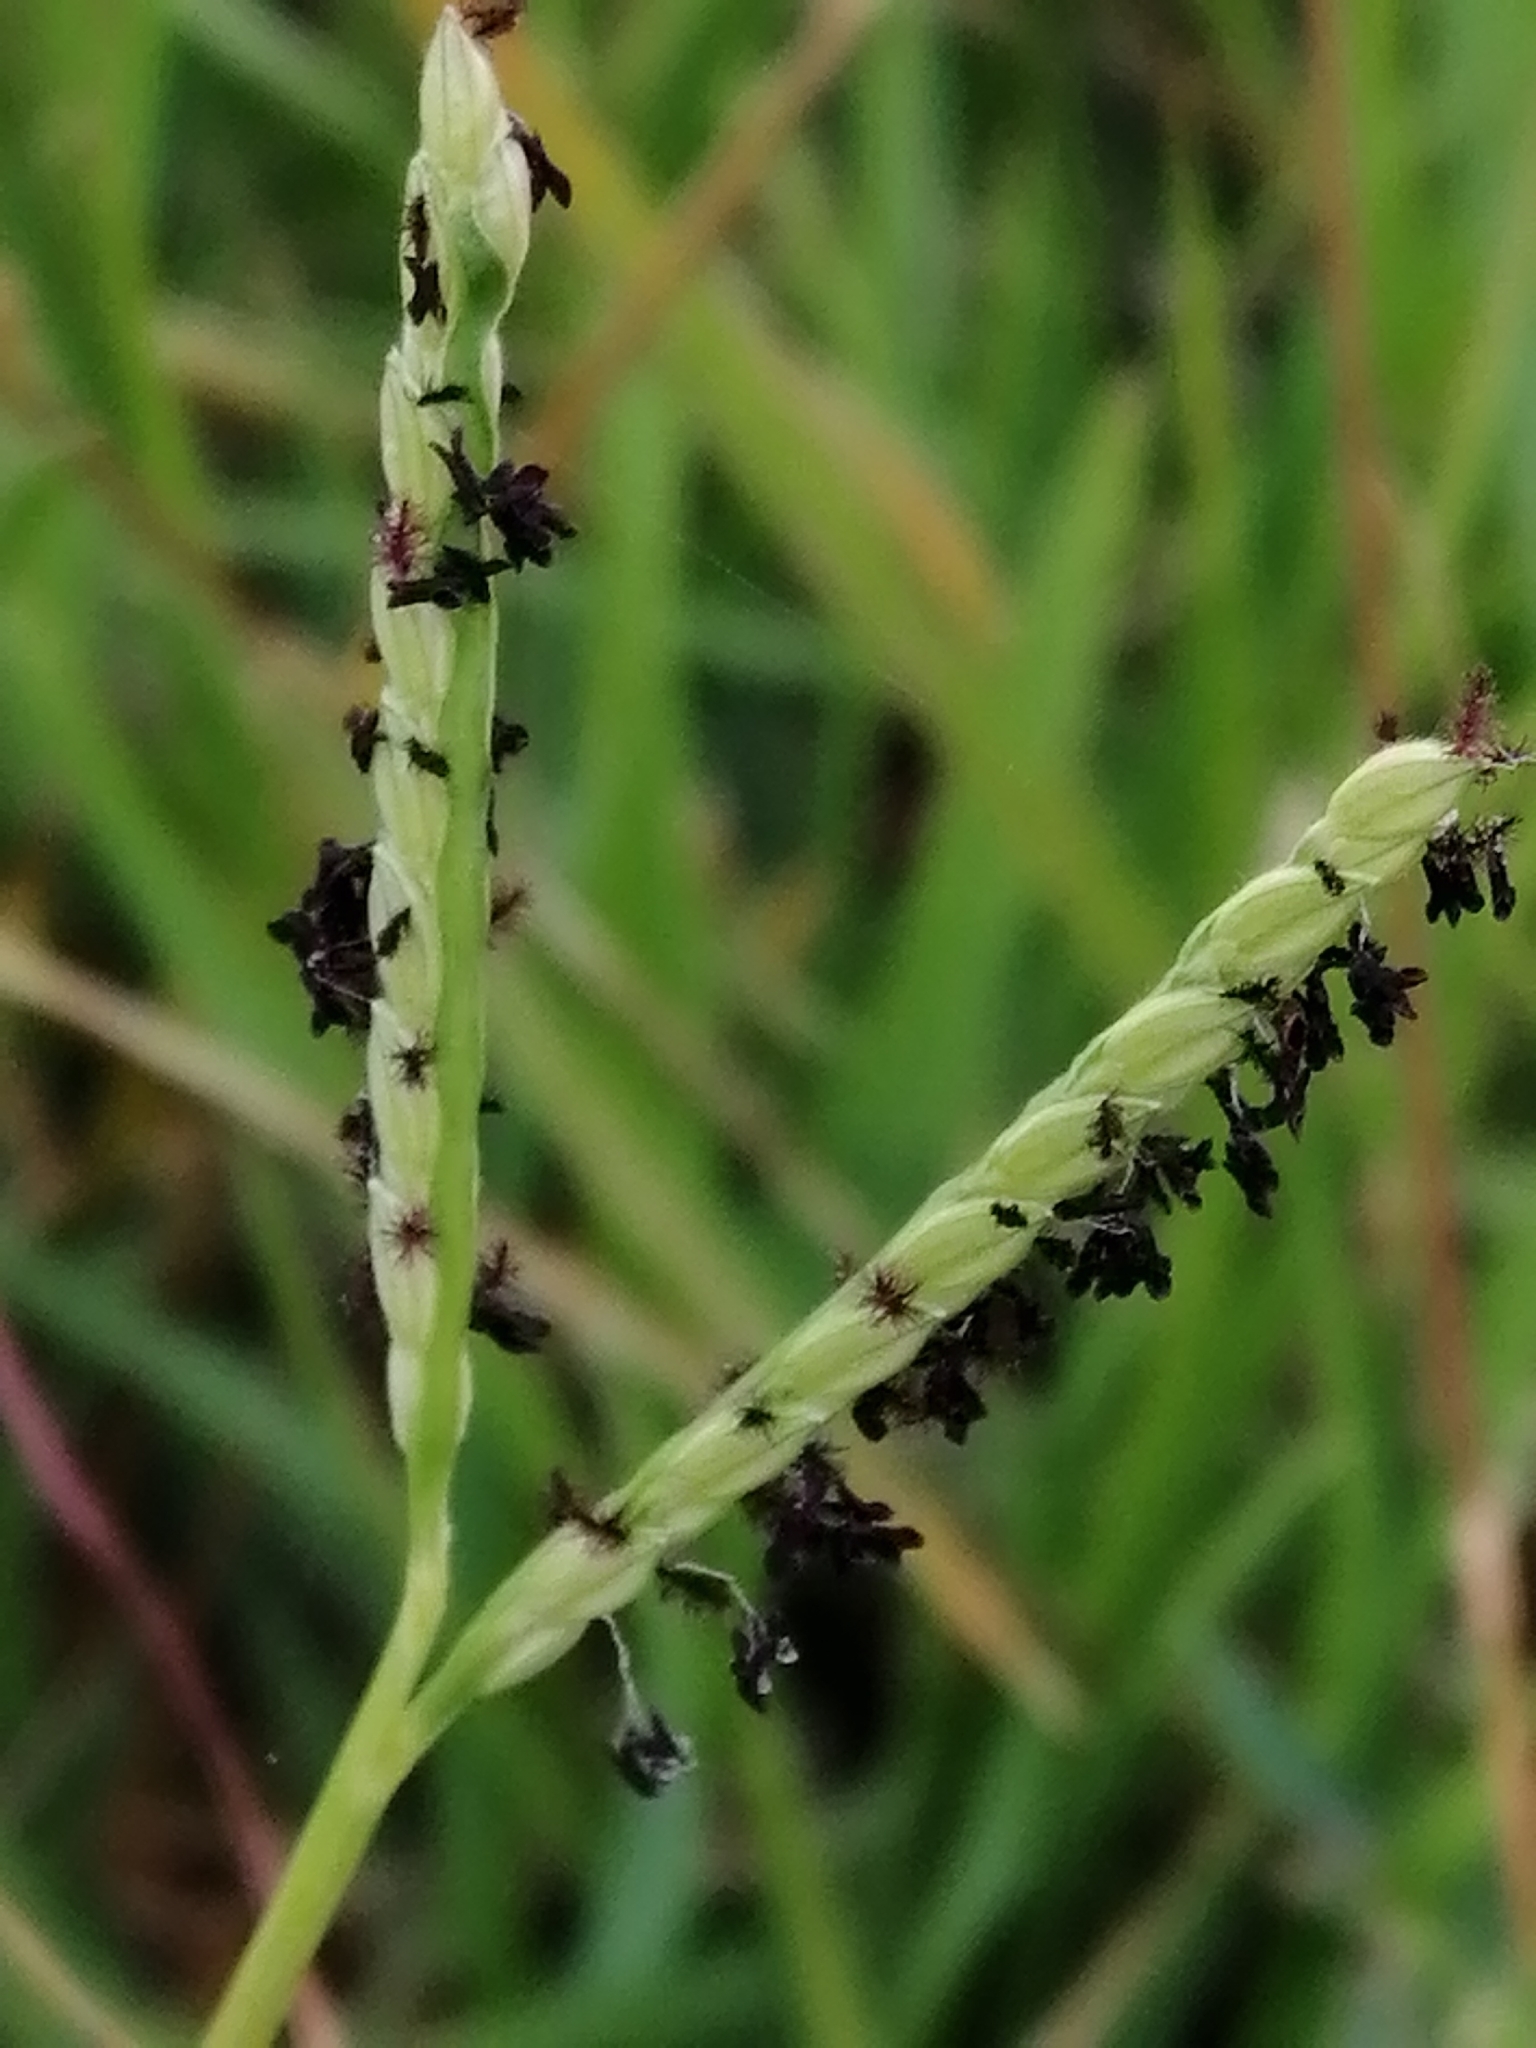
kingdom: Plantae
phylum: Tracheophyta
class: Liliopsida
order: Poales
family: Poaceae
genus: Paspalum
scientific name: Paspalum distichum
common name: Knotgrass
